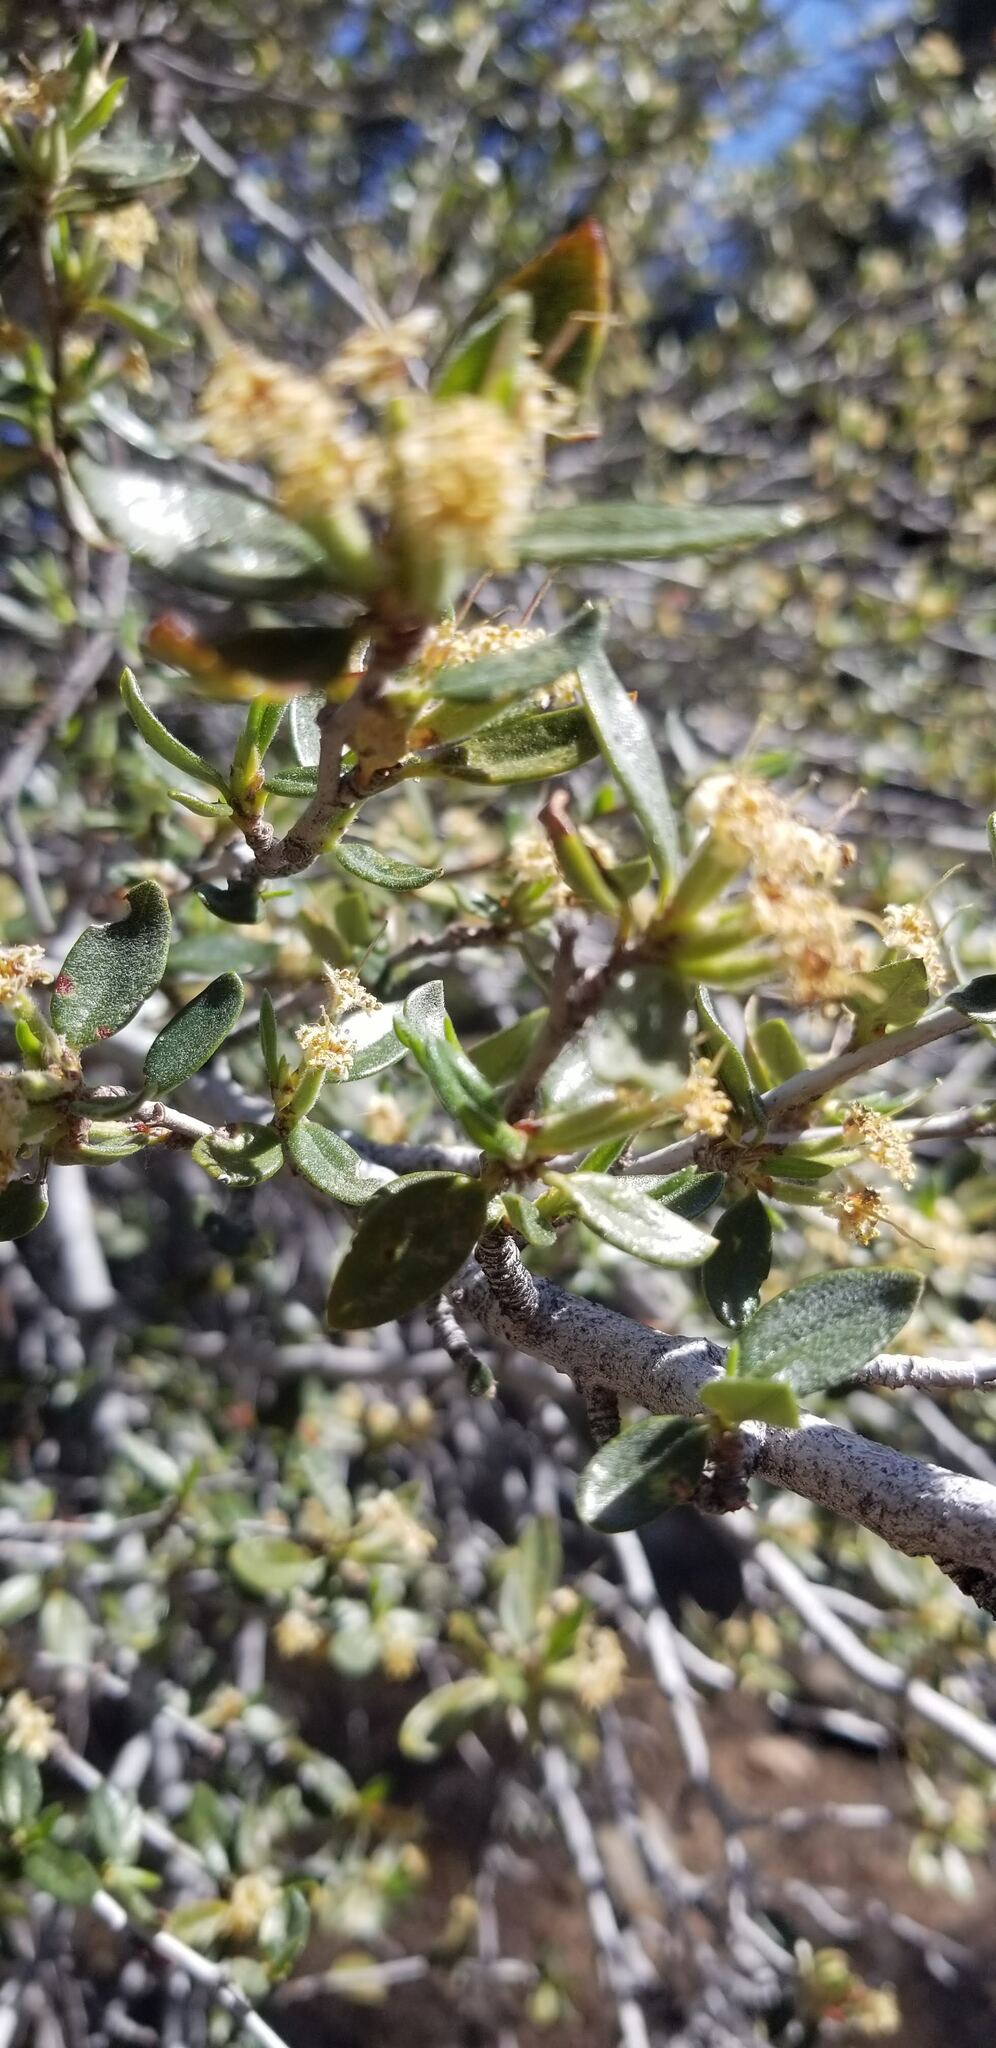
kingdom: Plantae
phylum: Tracheophyta
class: Magnoliopsida
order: Rosales
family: Rosaceae
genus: Cercocarpus
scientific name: Cercocarpus ledifolius
